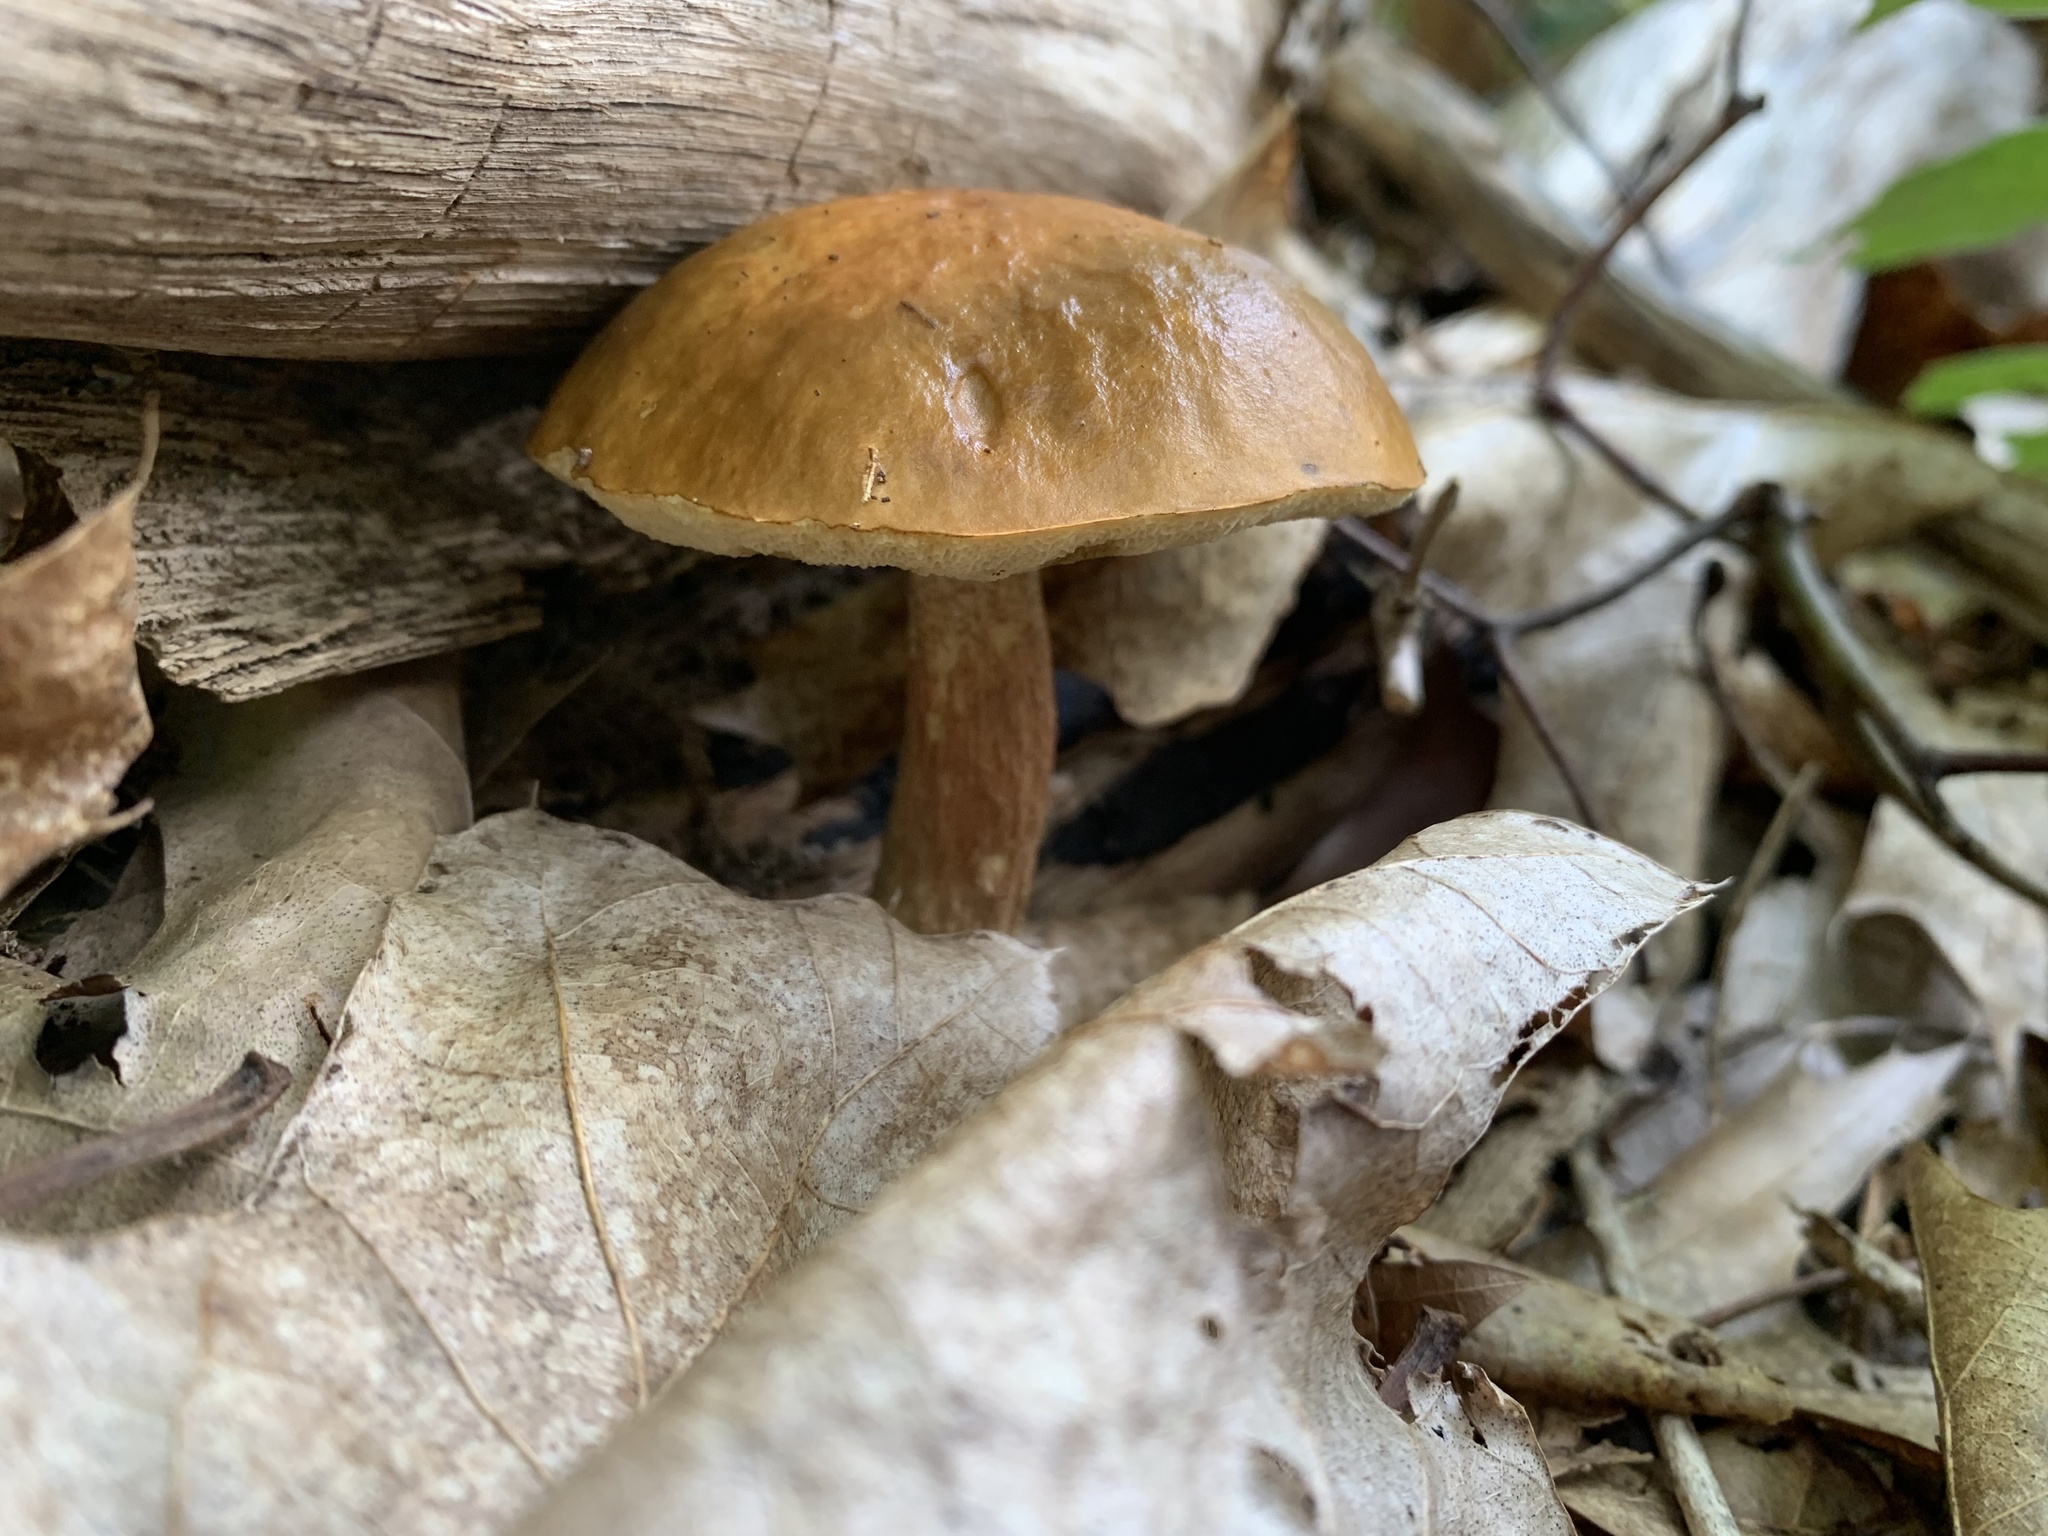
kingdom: Fungi
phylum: Basidiomycota
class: Agaricomycetes
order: Boletales
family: Boletaceae
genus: Leccinum
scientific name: Leccinum longicurvipes
